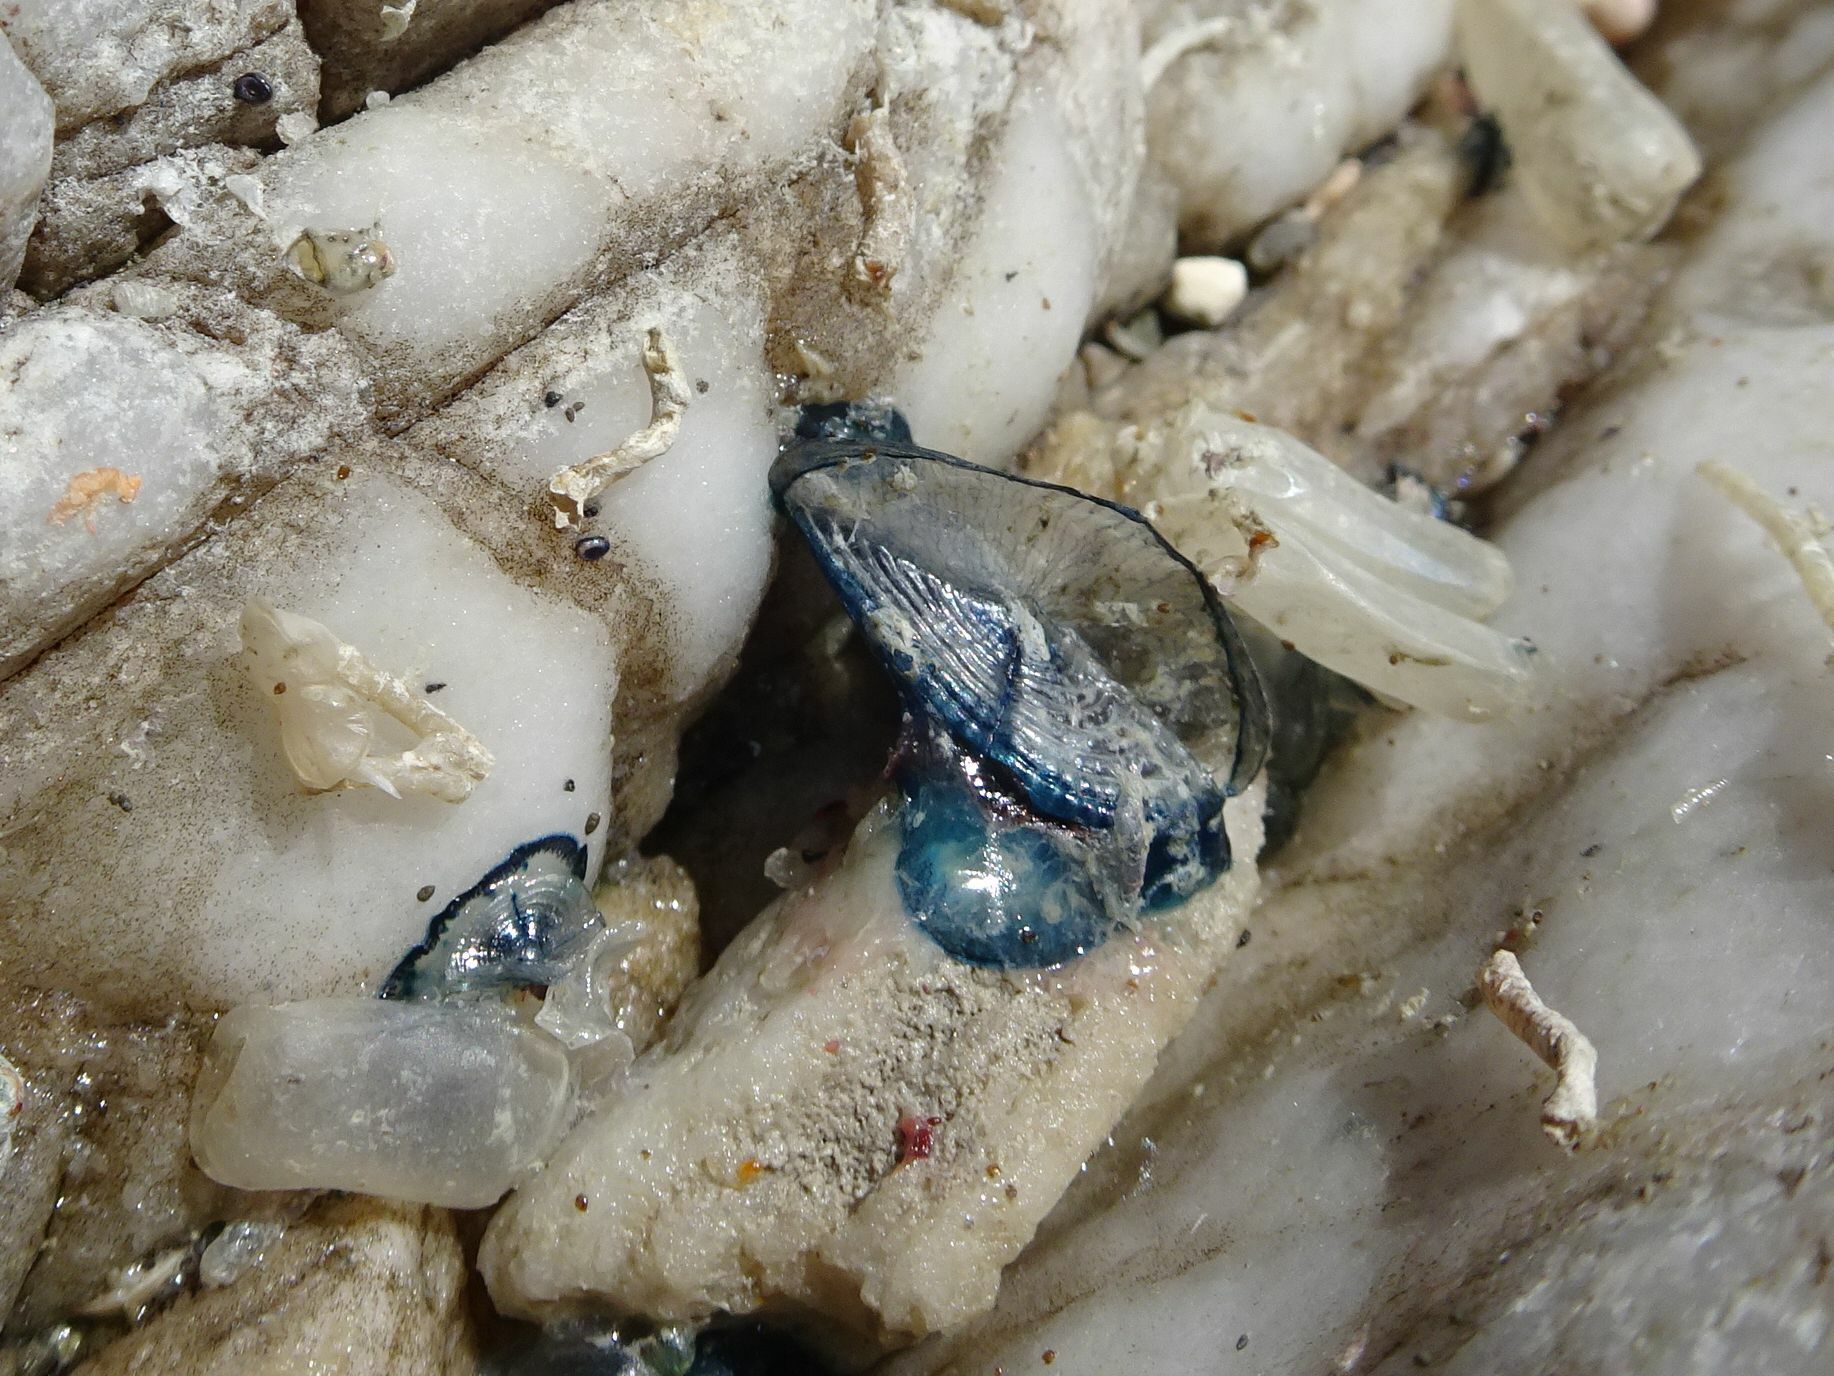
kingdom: Animalia
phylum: Cnidaria
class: Hydrozoa
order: Anthoathecata
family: Porpitidae
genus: Velella
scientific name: Velella velella
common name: By-the-wind-sailor
